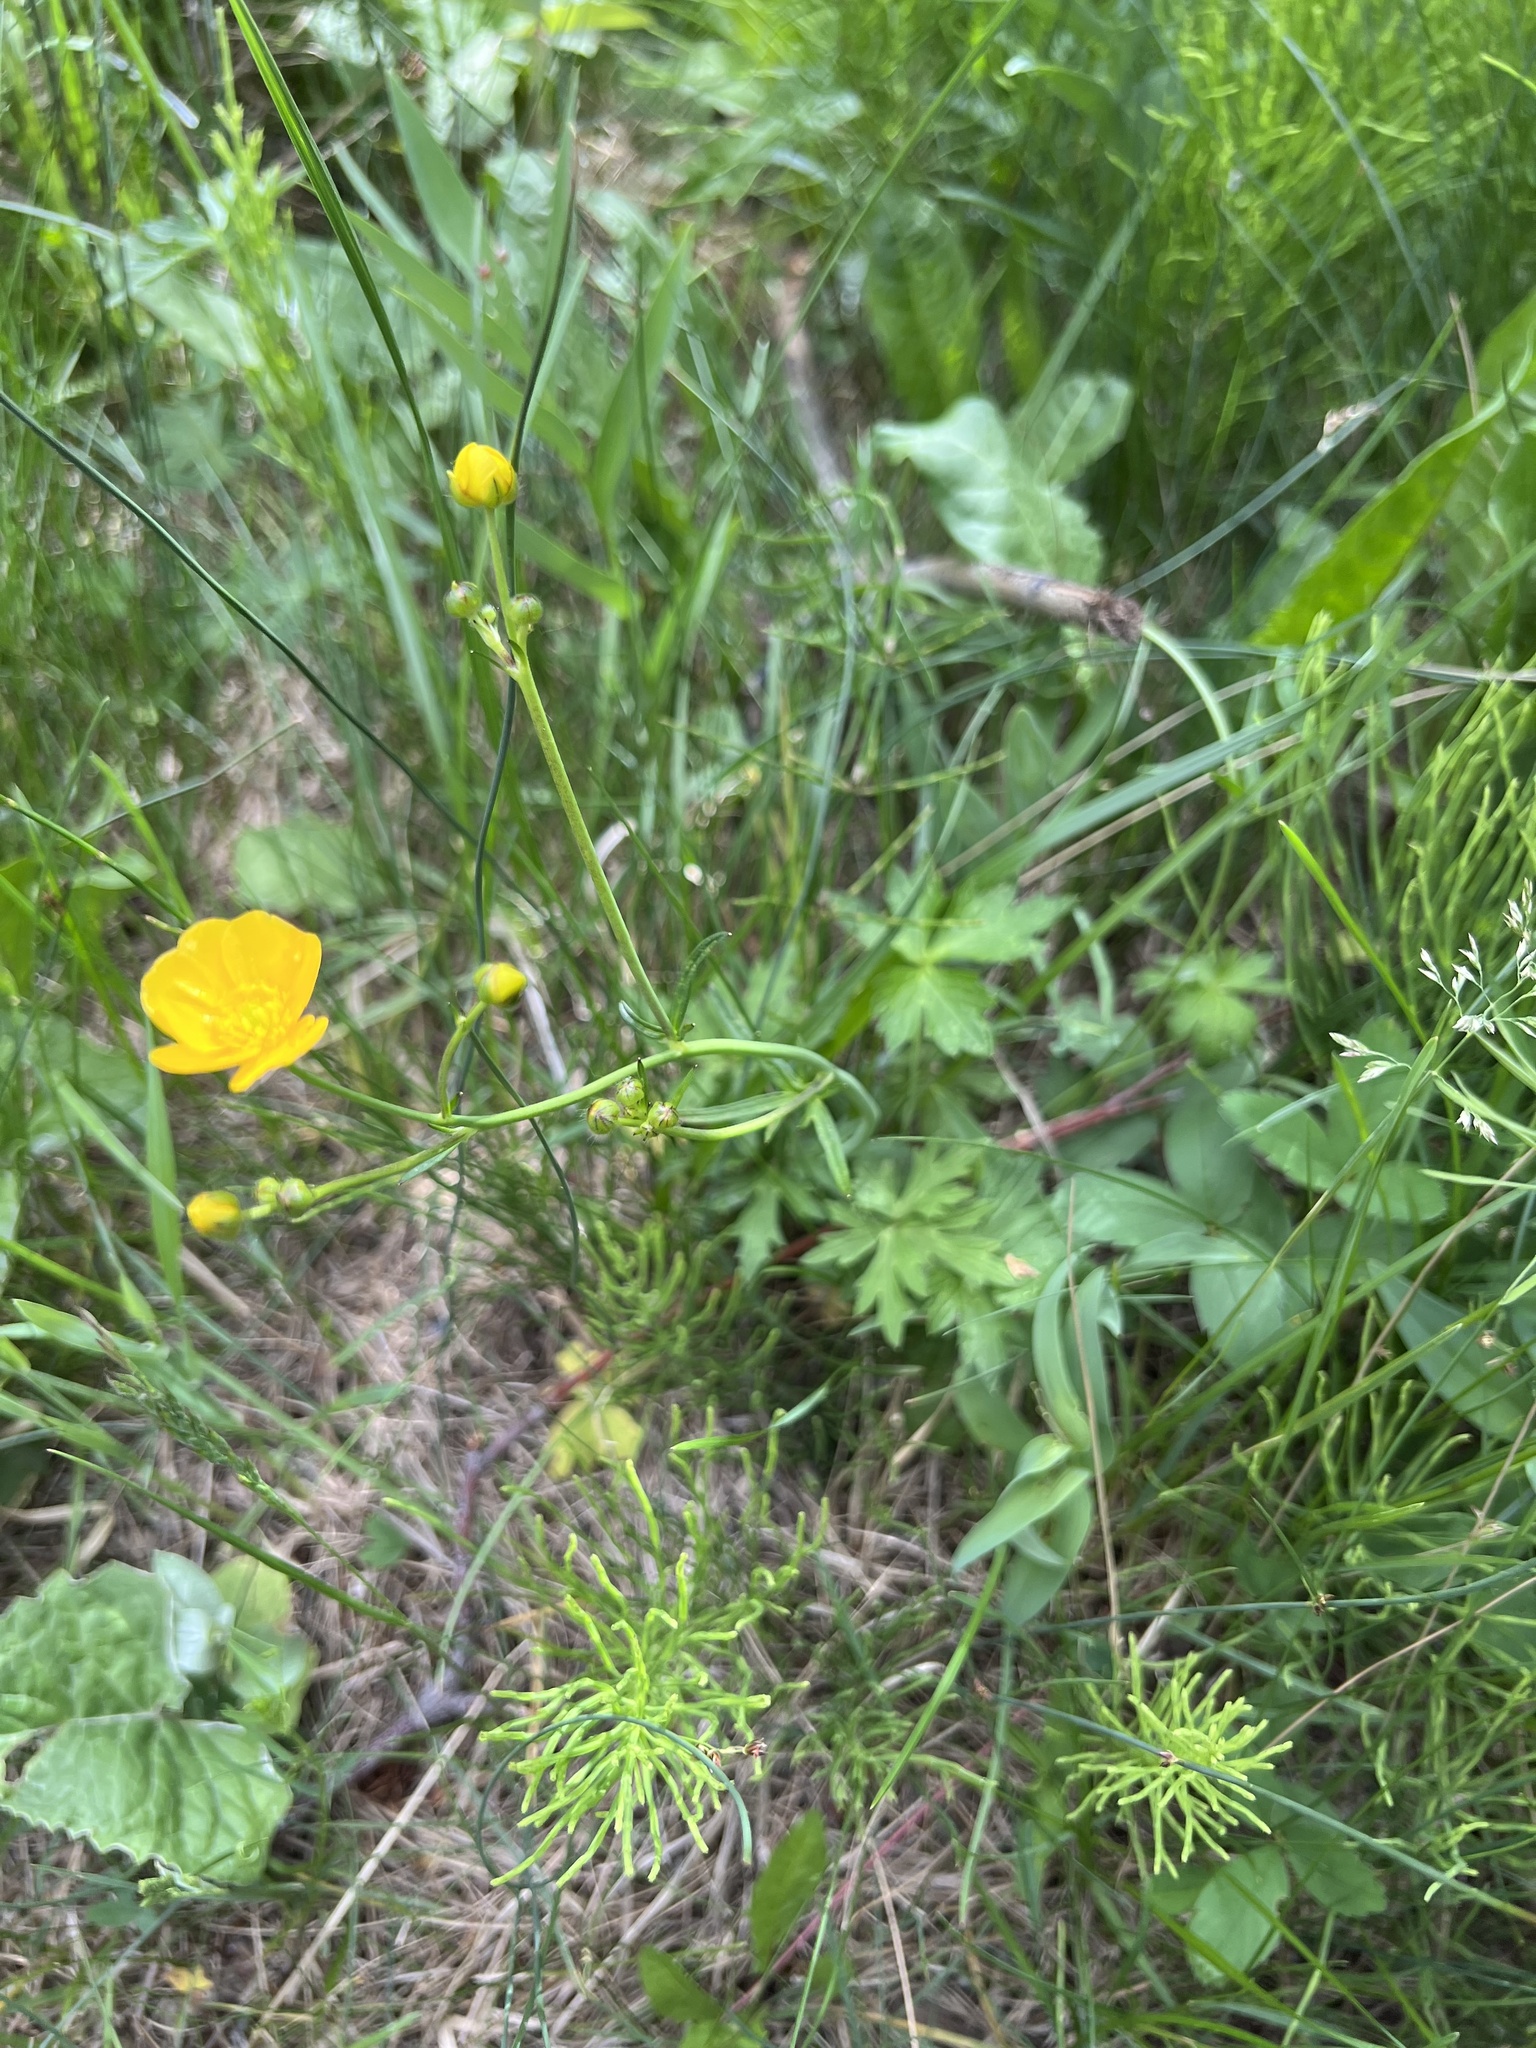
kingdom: Plantae
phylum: Tracheophyta
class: Magnoliopsida
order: Ranunculales
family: Ranunculaceae
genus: Ranunculus
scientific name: Ranunculus acris
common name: Meadow buttercup
